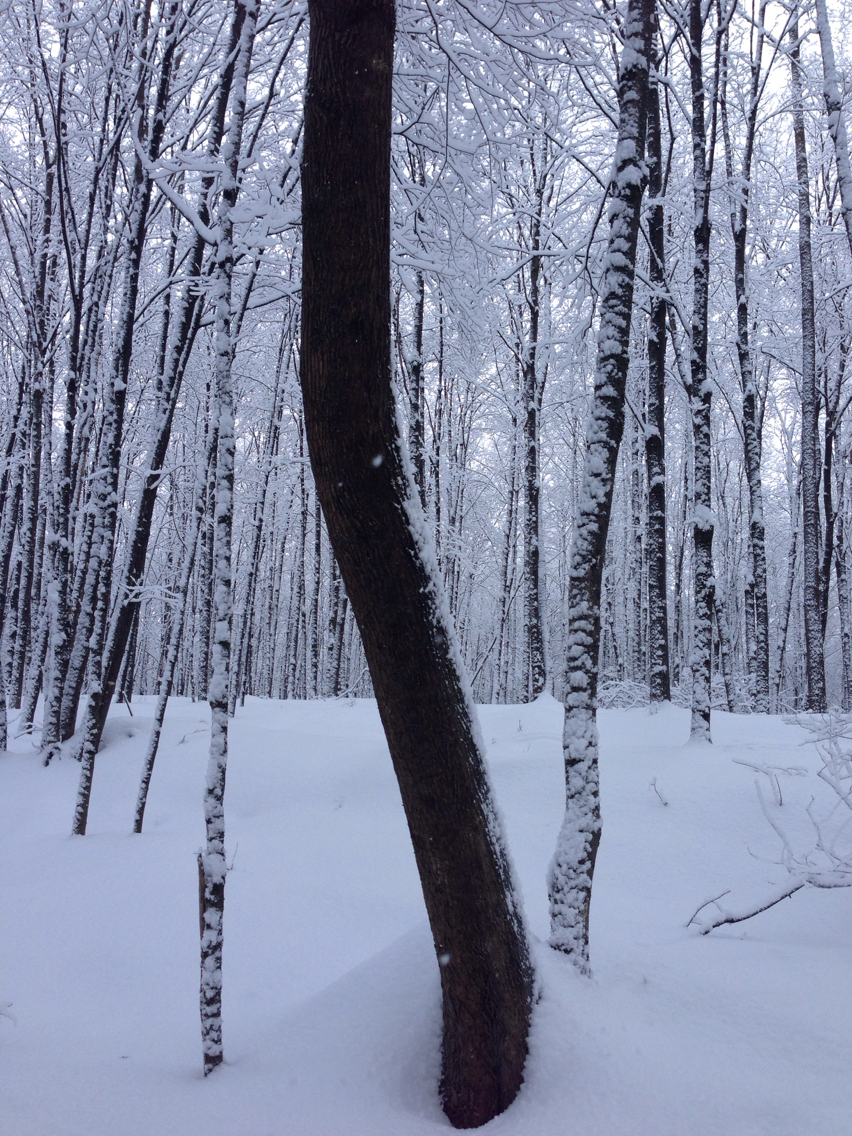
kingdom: Plantae
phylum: Tracheophyta
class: Magnoliopsida
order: Lamiales
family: Oleaceae
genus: Fraxinus
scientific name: Fraxinus americana
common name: White ash
